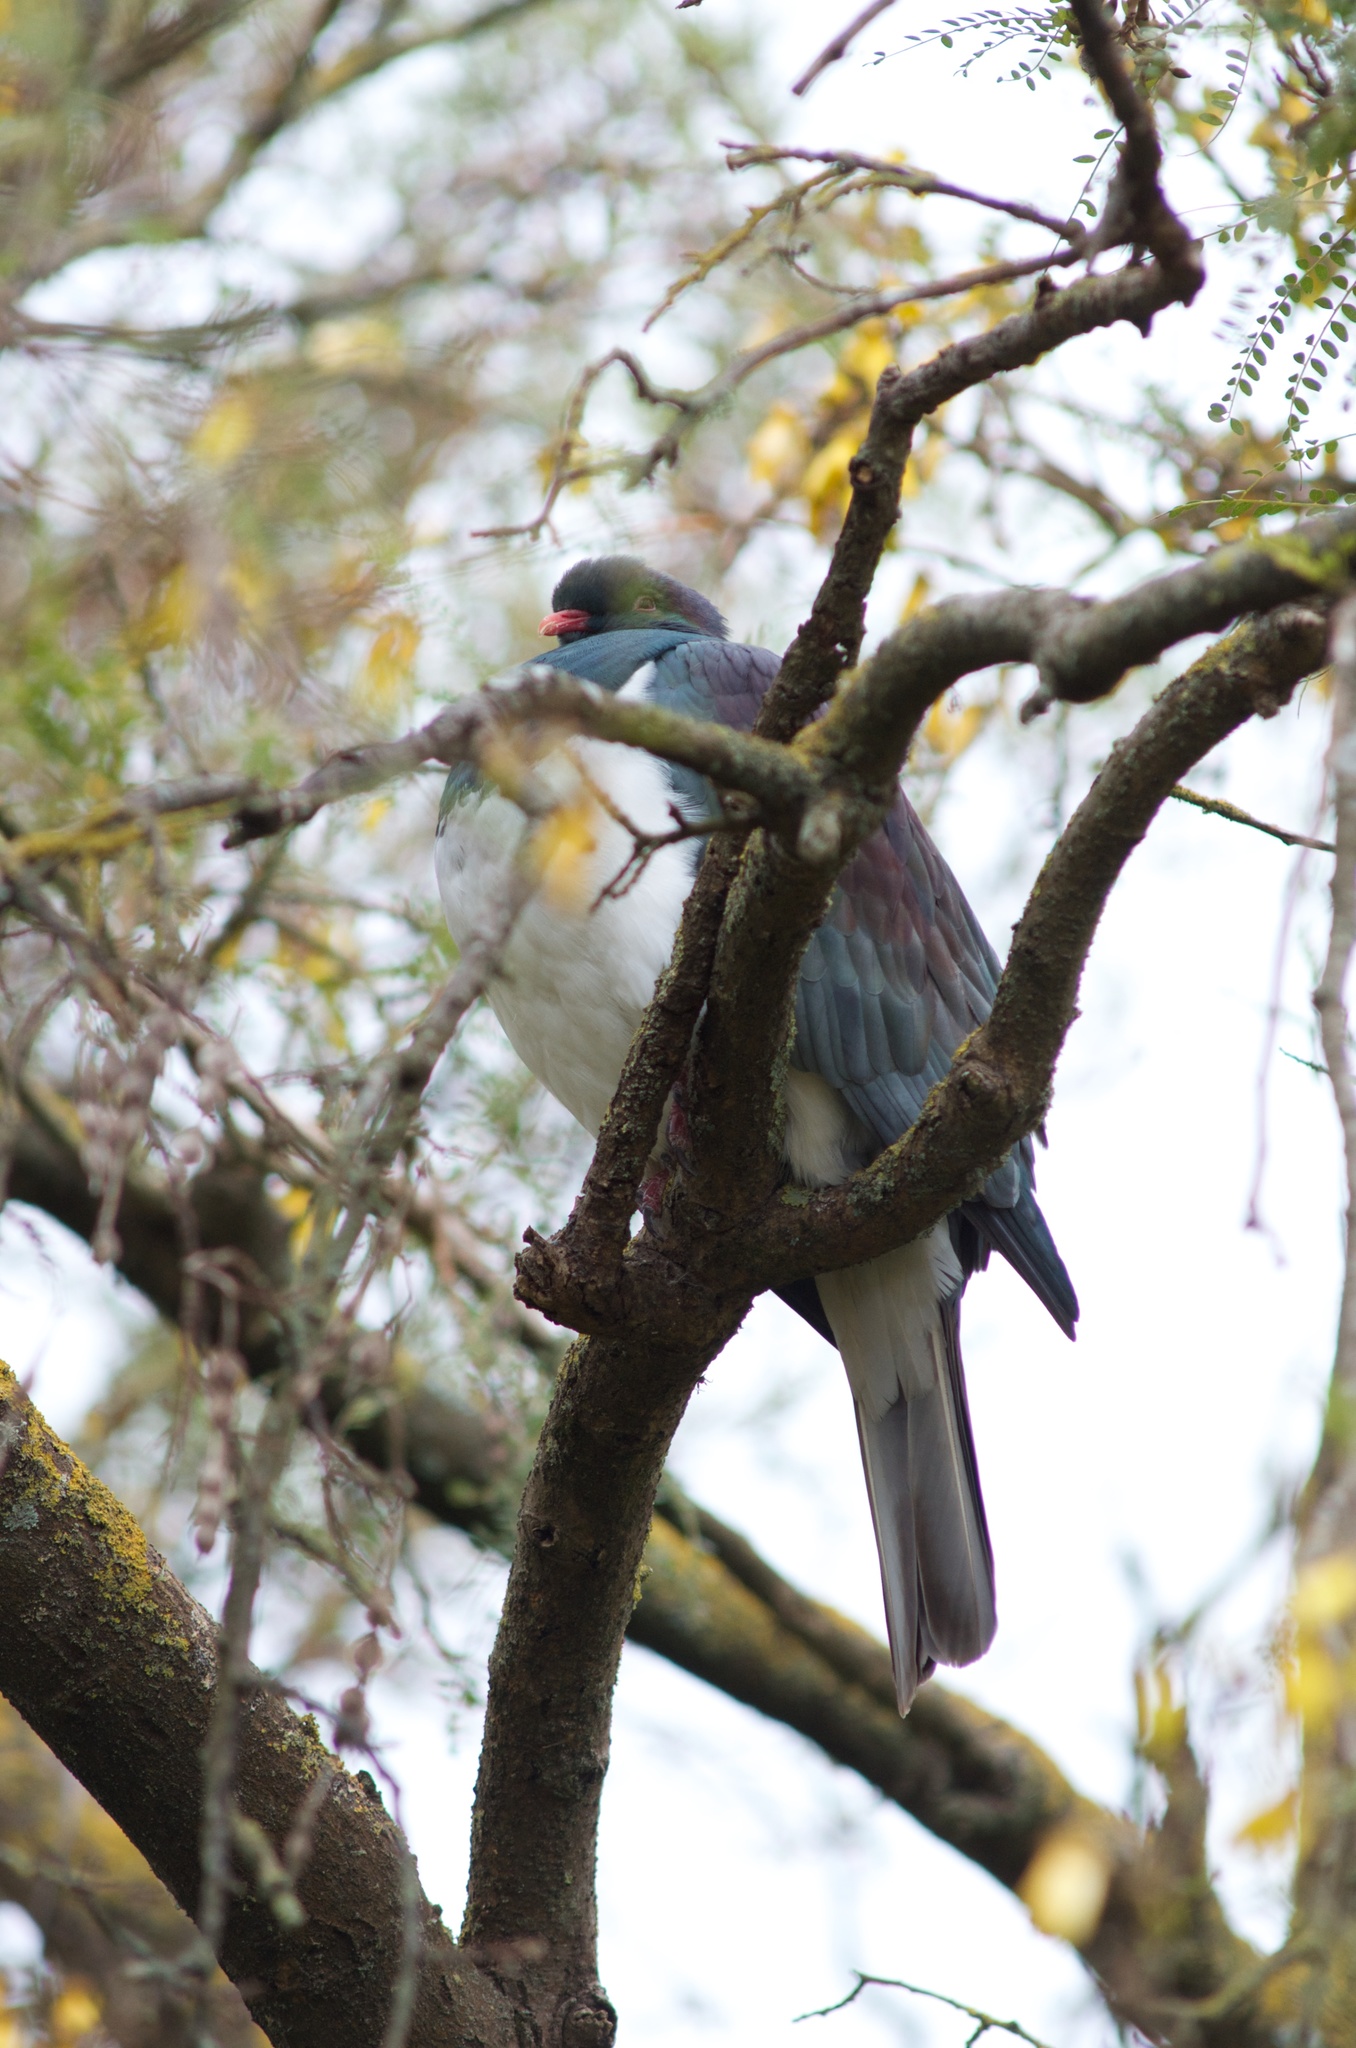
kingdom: Animalia
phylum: Chordata
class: Aves
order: Columbiformes
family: Columbidae
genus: Hemiphaga
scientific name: Hemiphaga novaeseelandiae
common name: New zealand pigeon
